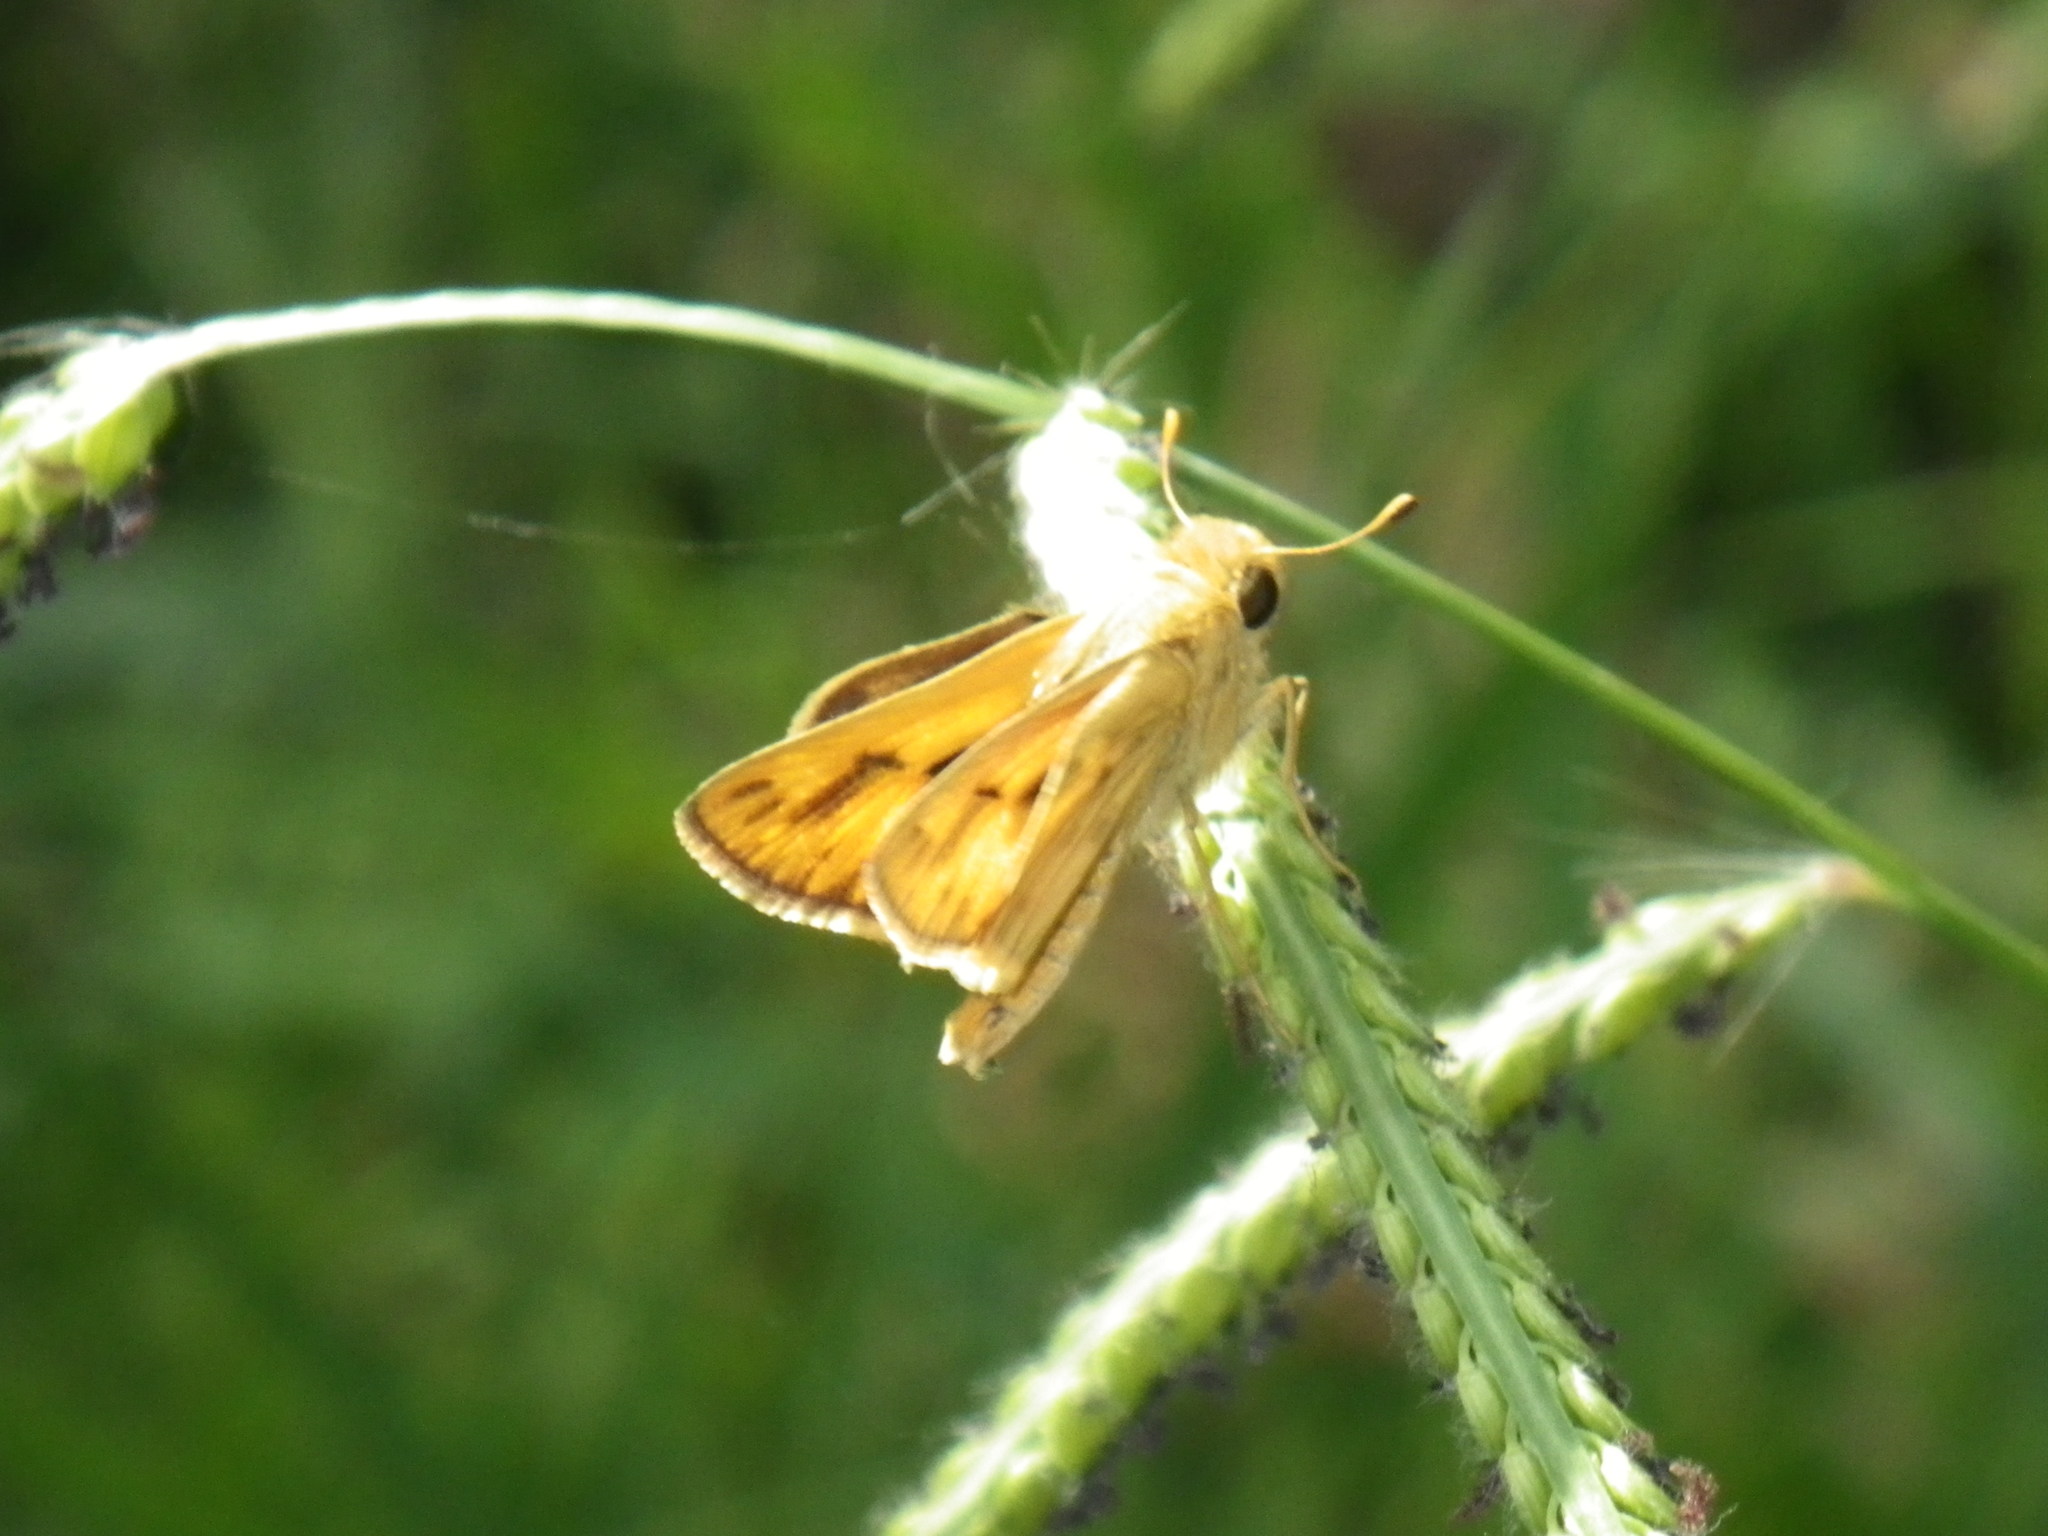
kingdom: Animalia
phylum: Arthropoda
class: Insecta
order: Lepidoptera
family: Hesperiidae
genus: Hylephila
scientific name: Hylephila phyleus
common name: Fiery skipper
